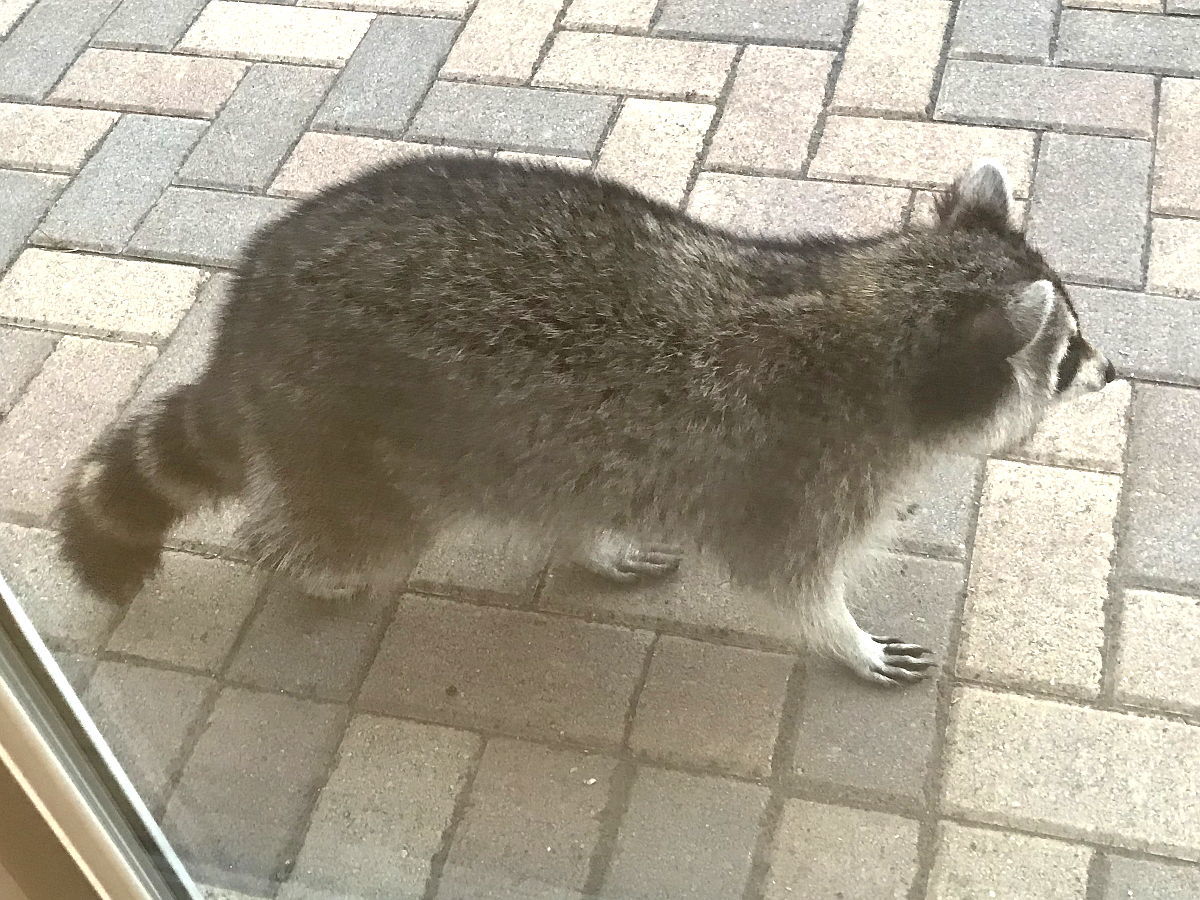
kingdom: Animalia
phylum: Chordata
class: Mammalia
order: Carnivora
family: Procyonidae
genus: Procyon
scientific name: Procyon lotor
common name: Raccoon
